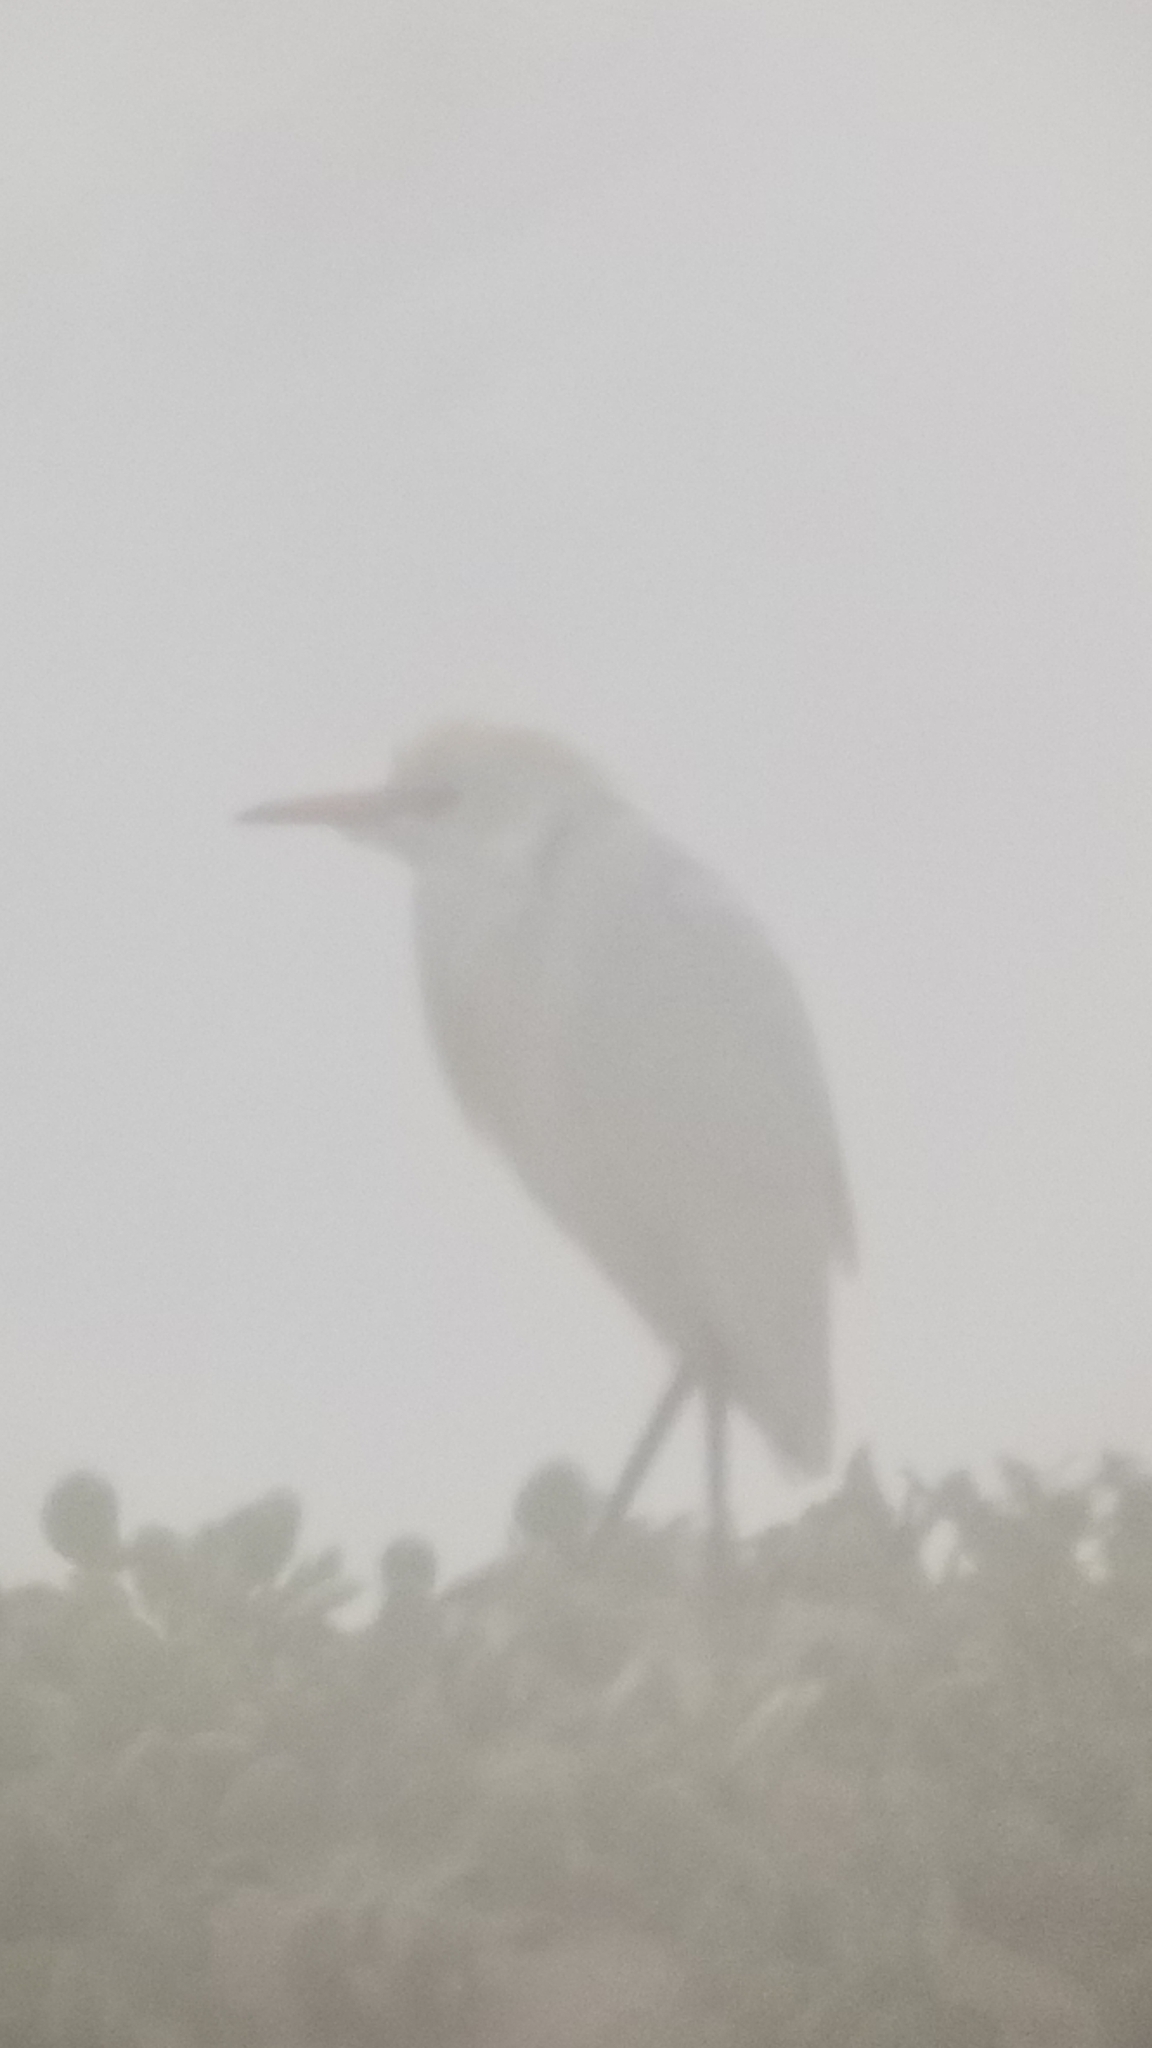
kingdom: Animalia
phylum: Chordata
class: Aves
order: Pelecaniformes
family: Ardeidae
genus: Bubulcus
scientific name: Bubulcus ibis
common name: Cattle egret
